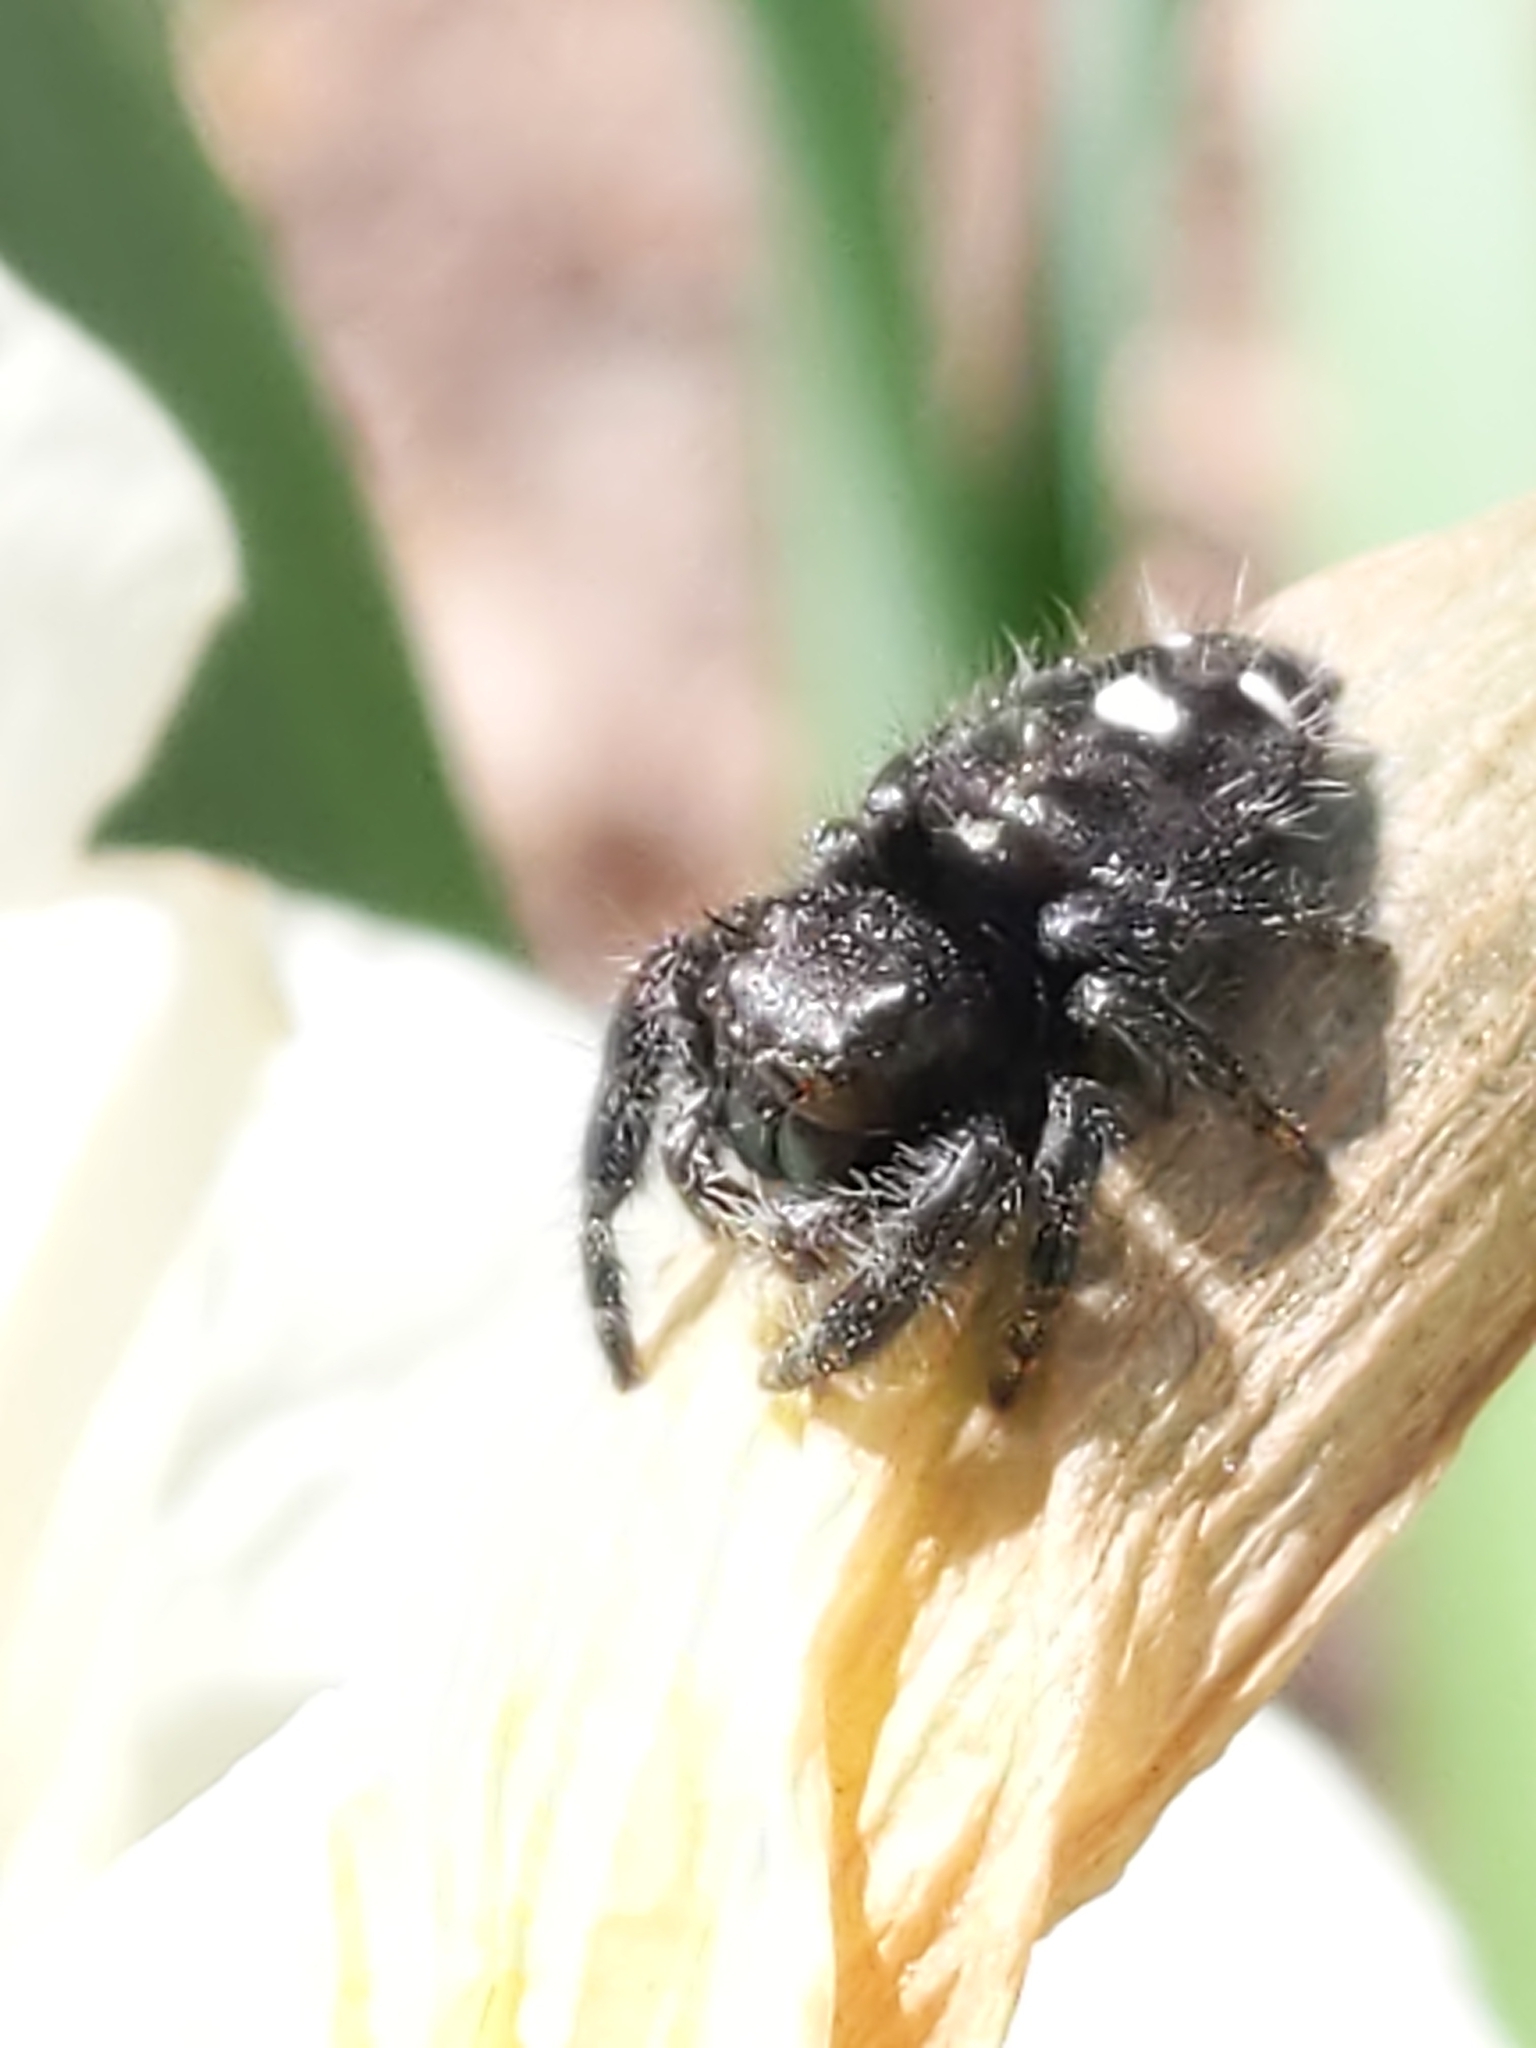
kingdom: Animalia
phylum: Arthropoda
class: Arachnida
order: Araneae
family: Salticidae
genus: Phidippus
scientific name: Phidippus audax
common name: Bold jumper
